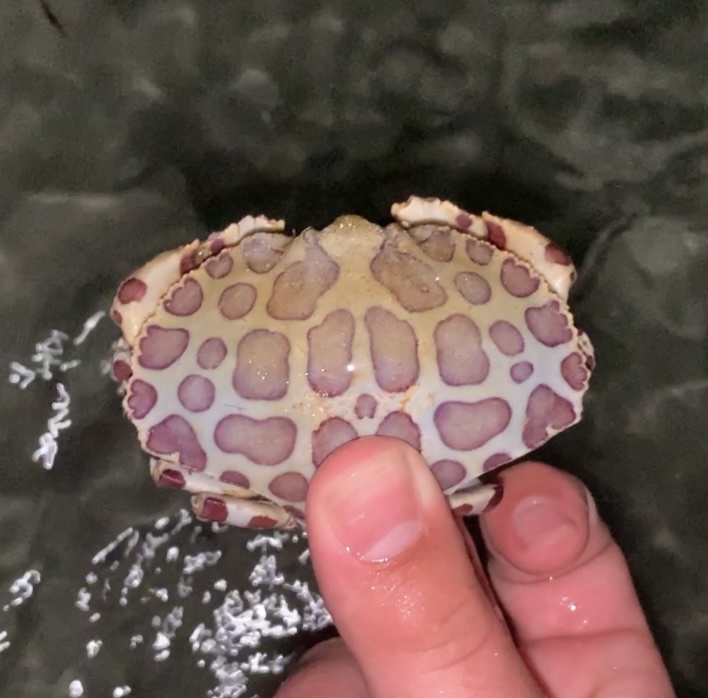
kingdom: Animalia
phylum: Arthropoda
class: Malacostraca
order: Decapoda
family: Aethridae
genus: Hepatus
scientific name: Hepatus epheliticus
